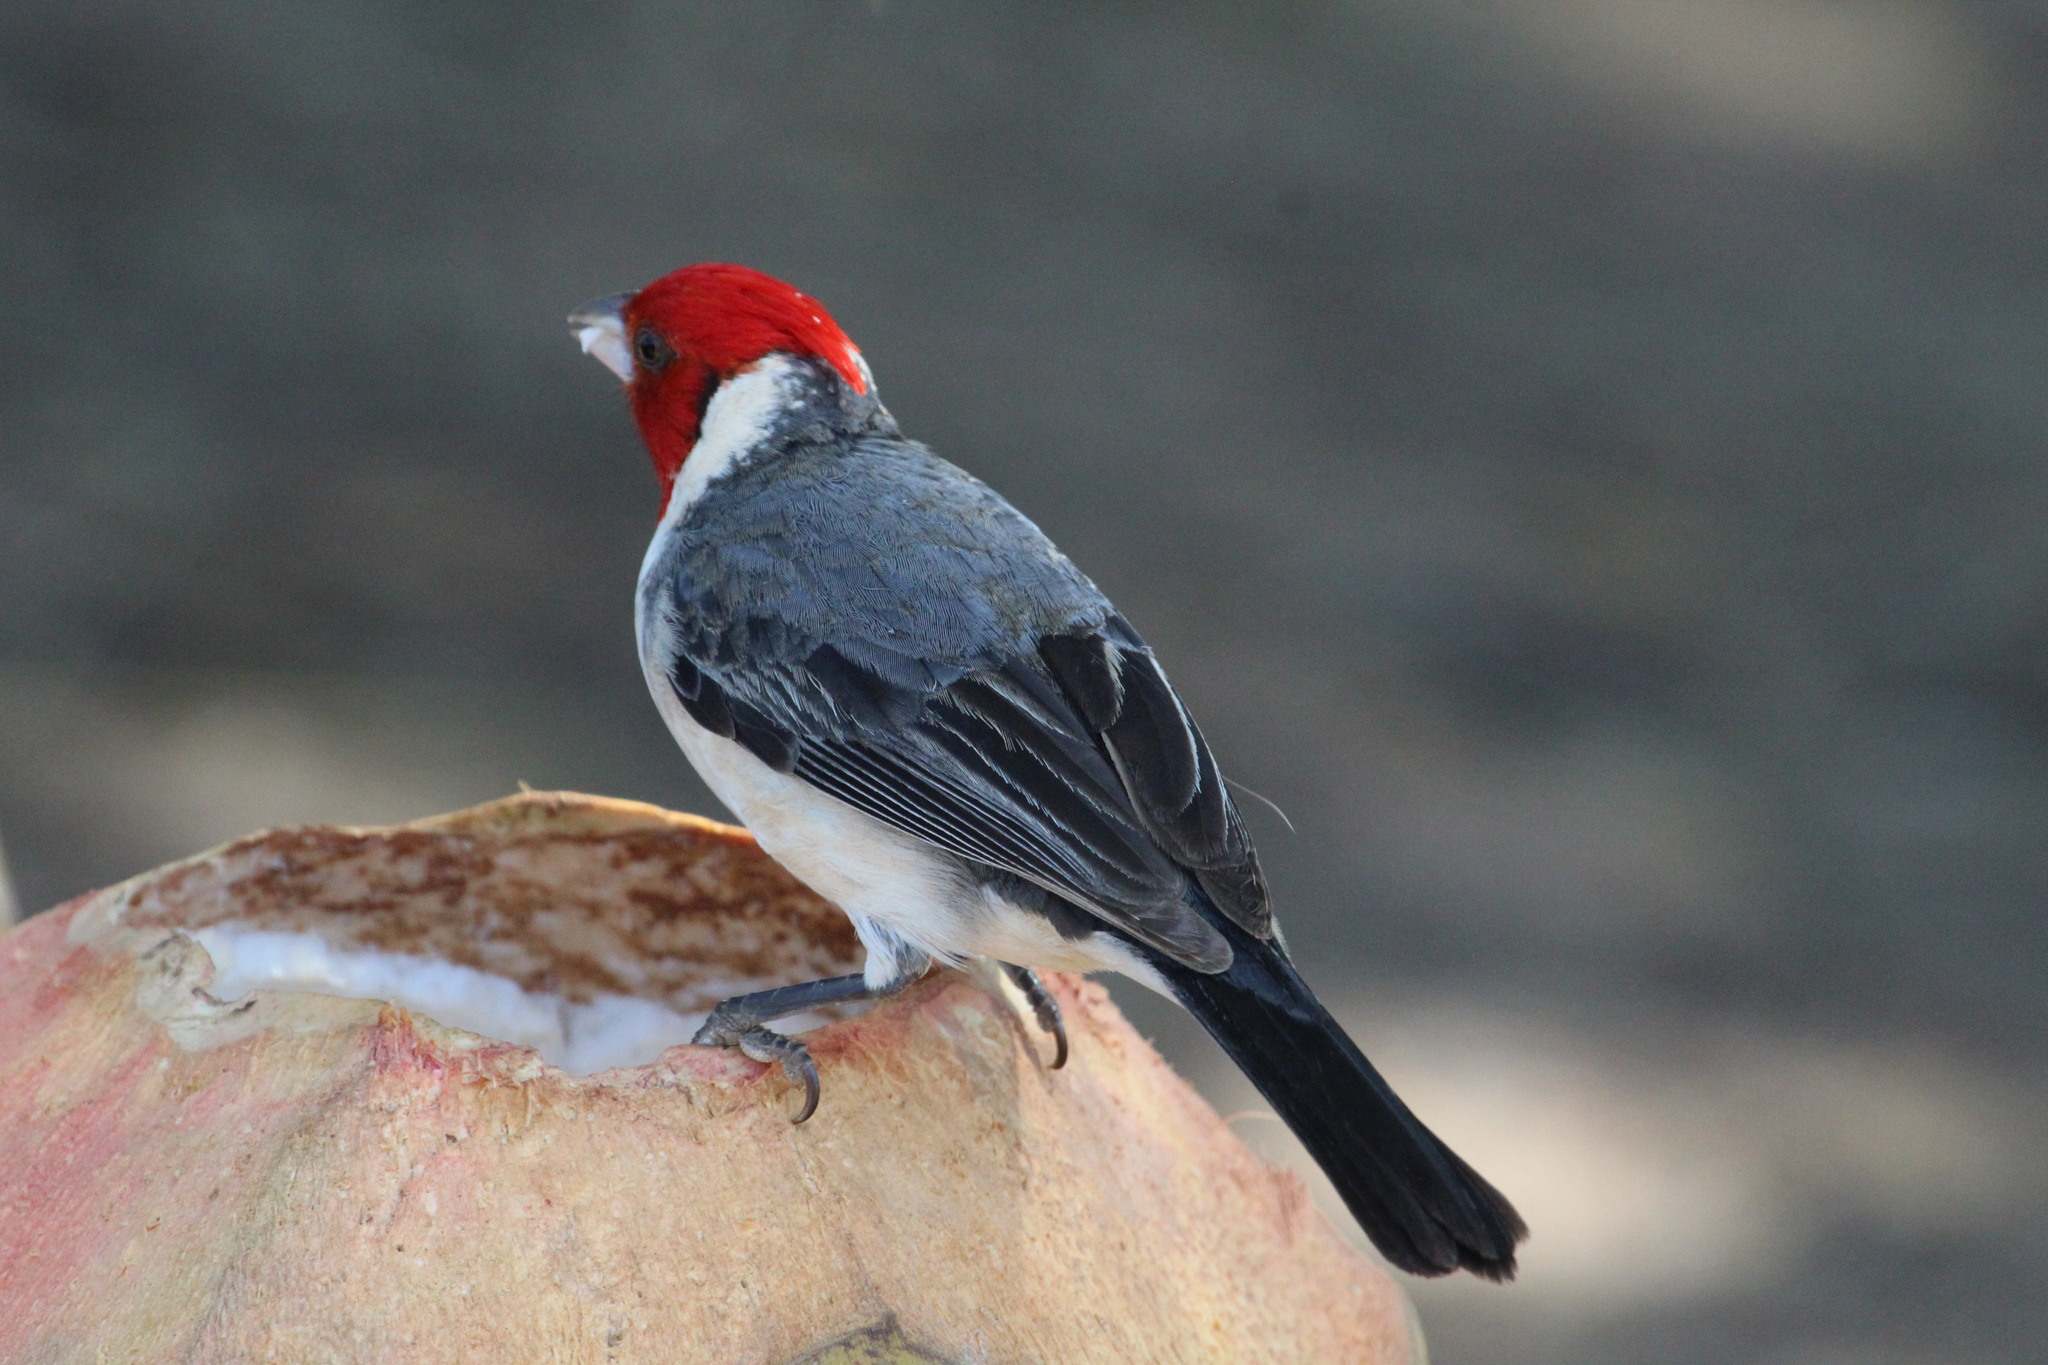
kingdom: Animalia
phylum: Chordata
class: Aves
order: Passeriformes
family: Thraupidae
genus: Paroaria
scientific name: Paroaria coronata
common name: Red-crested cardinal
